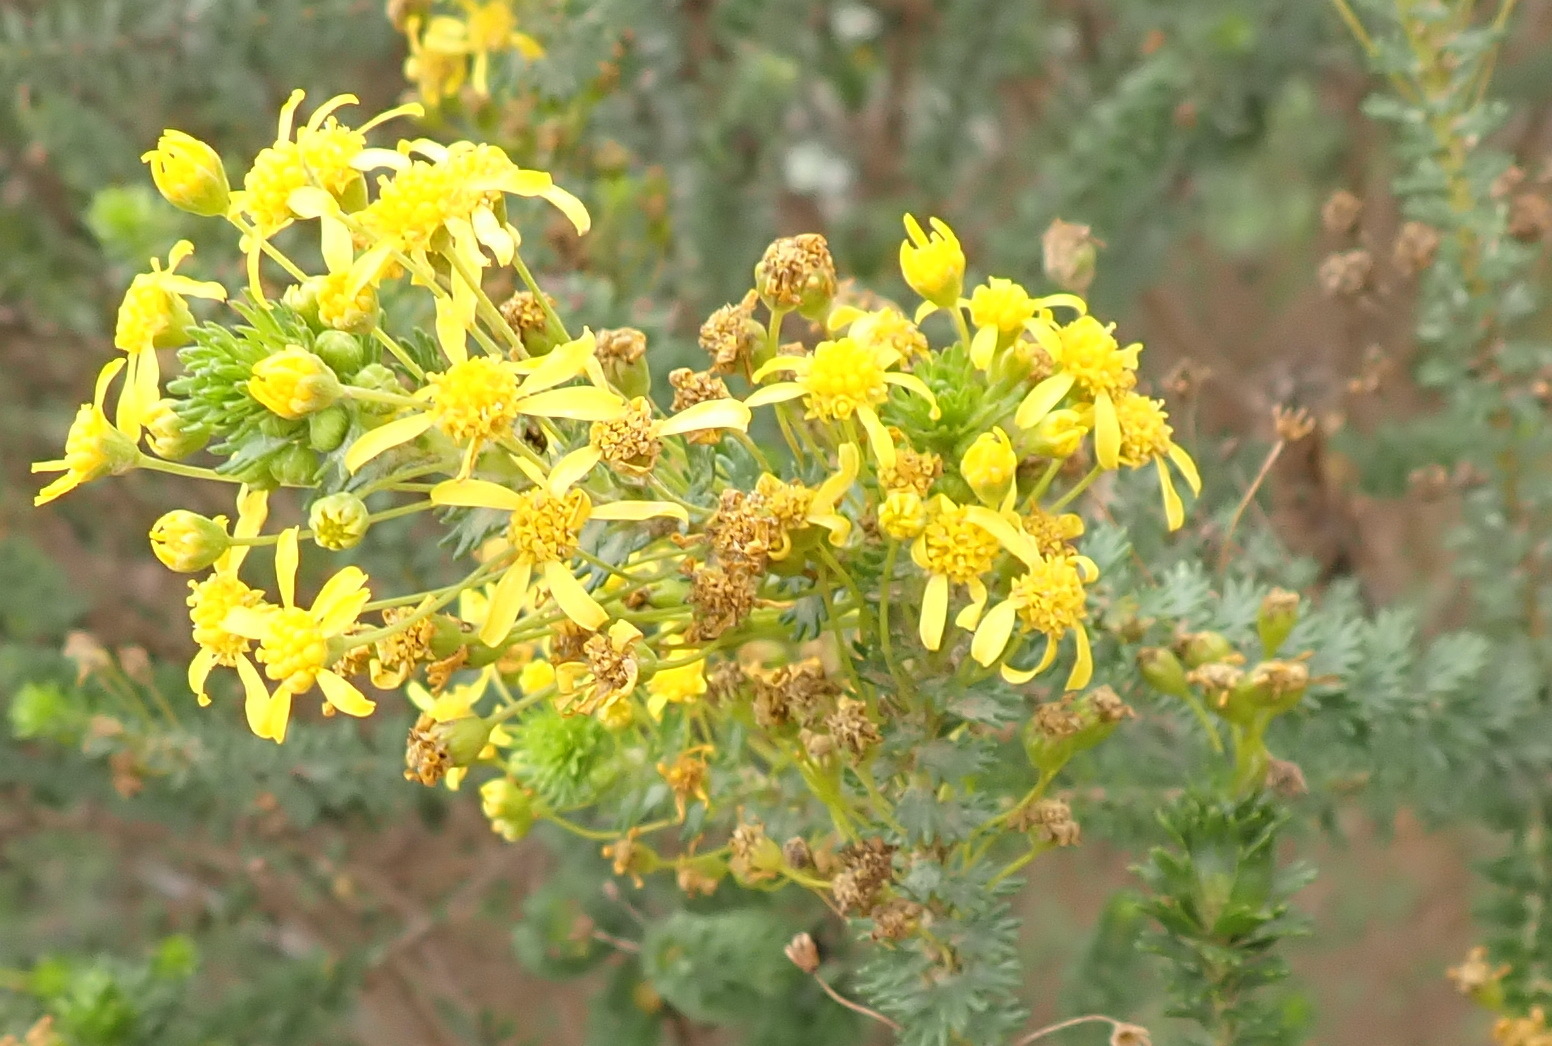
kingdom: Plantae
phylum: Tracheophyta
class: Magnoliopsida
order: Asterales
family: Asteraceae
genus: Euryops
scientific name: Euryops virgineus
